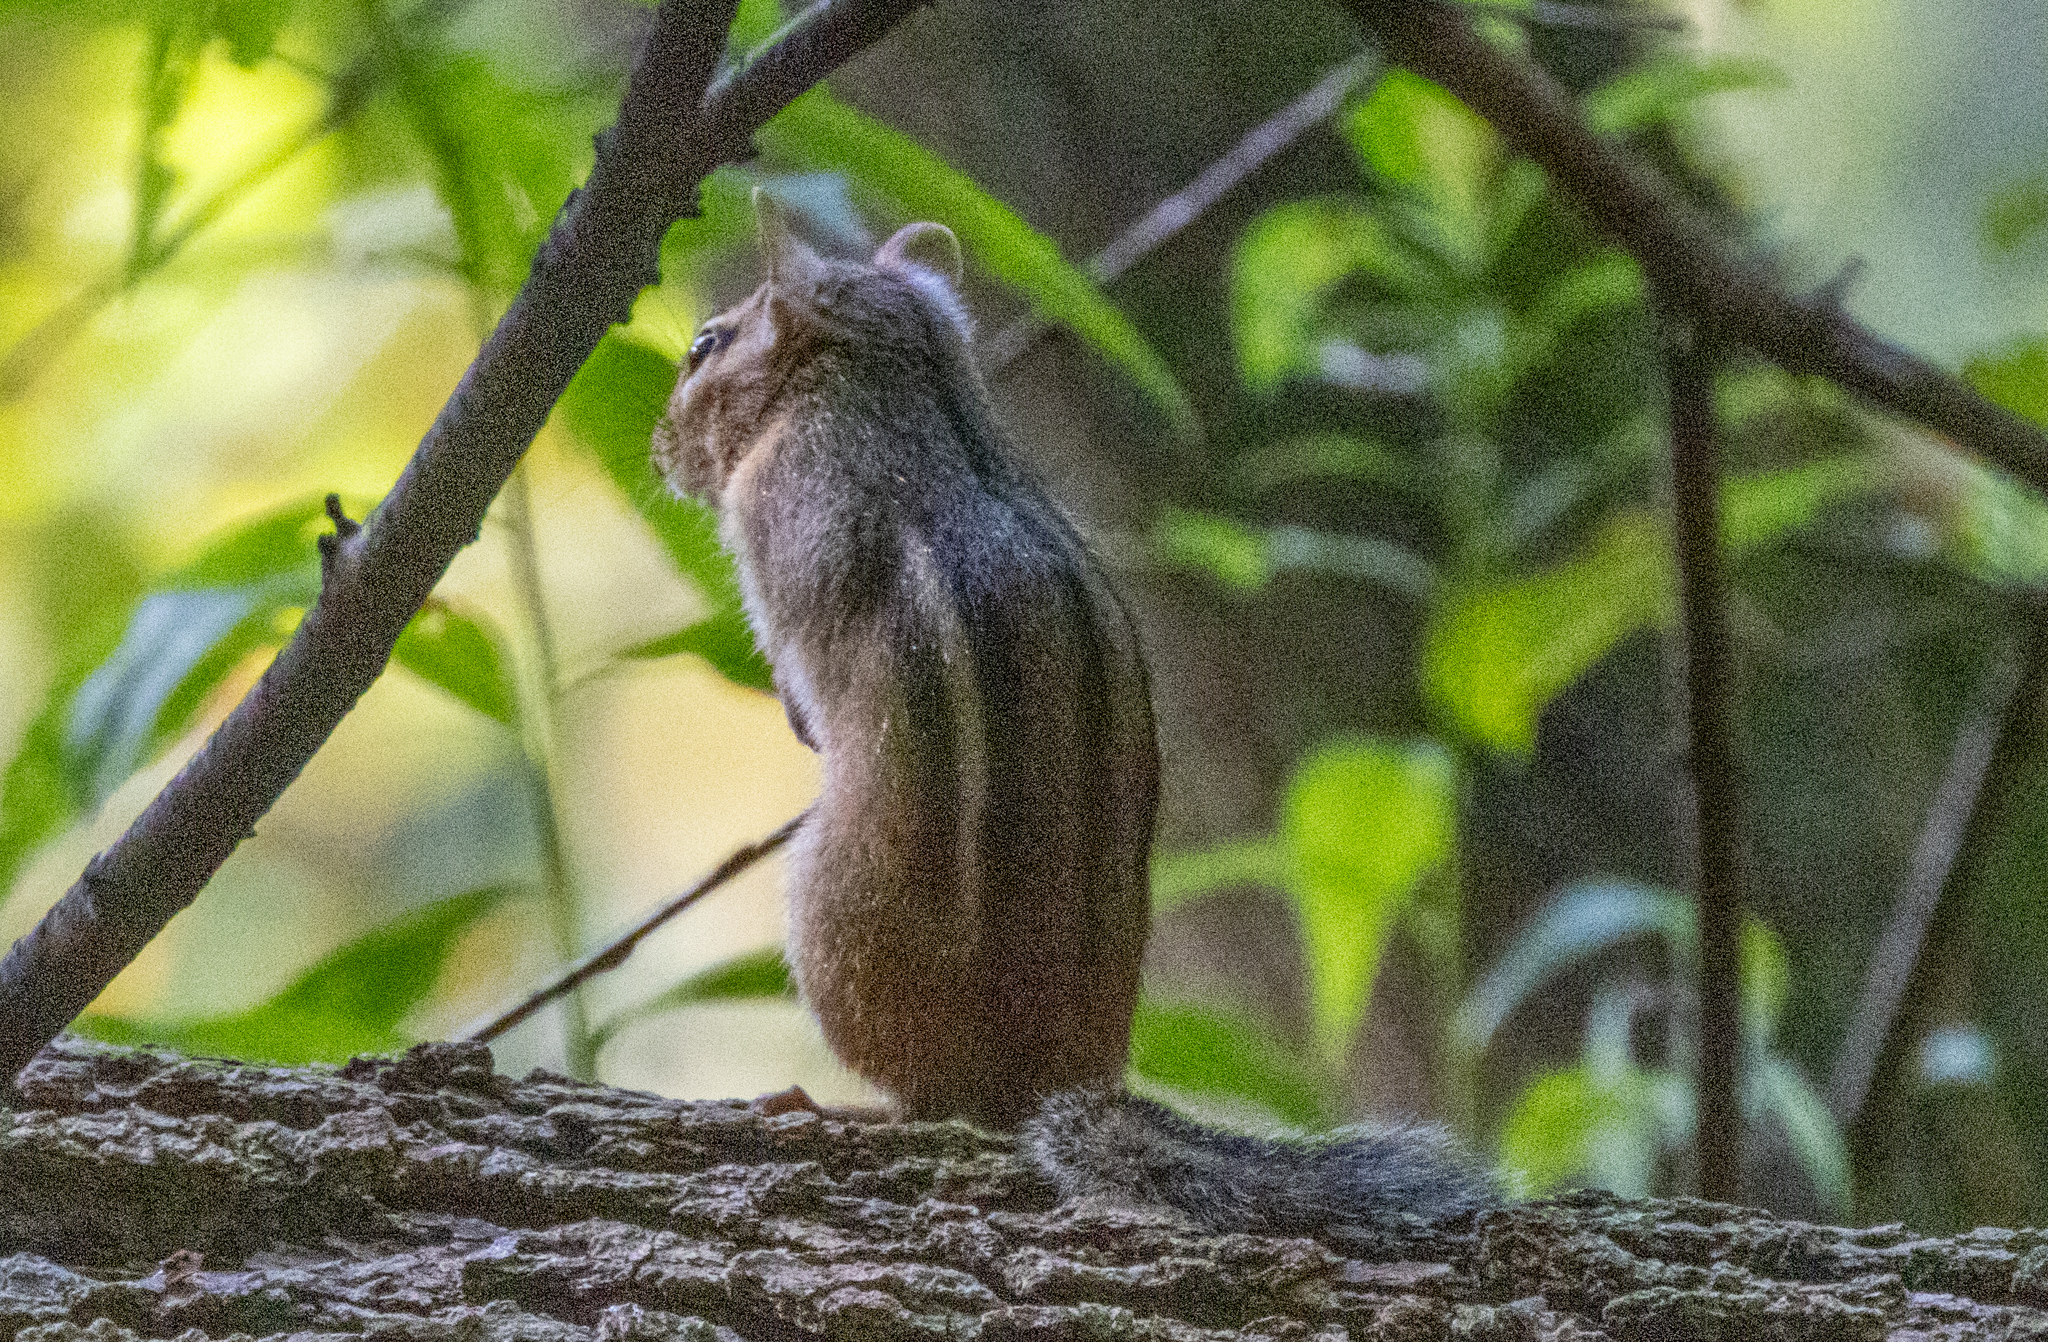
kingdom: Animalia
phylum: Chordata
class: Mammalia
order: Rodentia
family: Sciuridae
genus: Tamias
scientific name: Tamias striatus
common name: Eastern chipmunk
